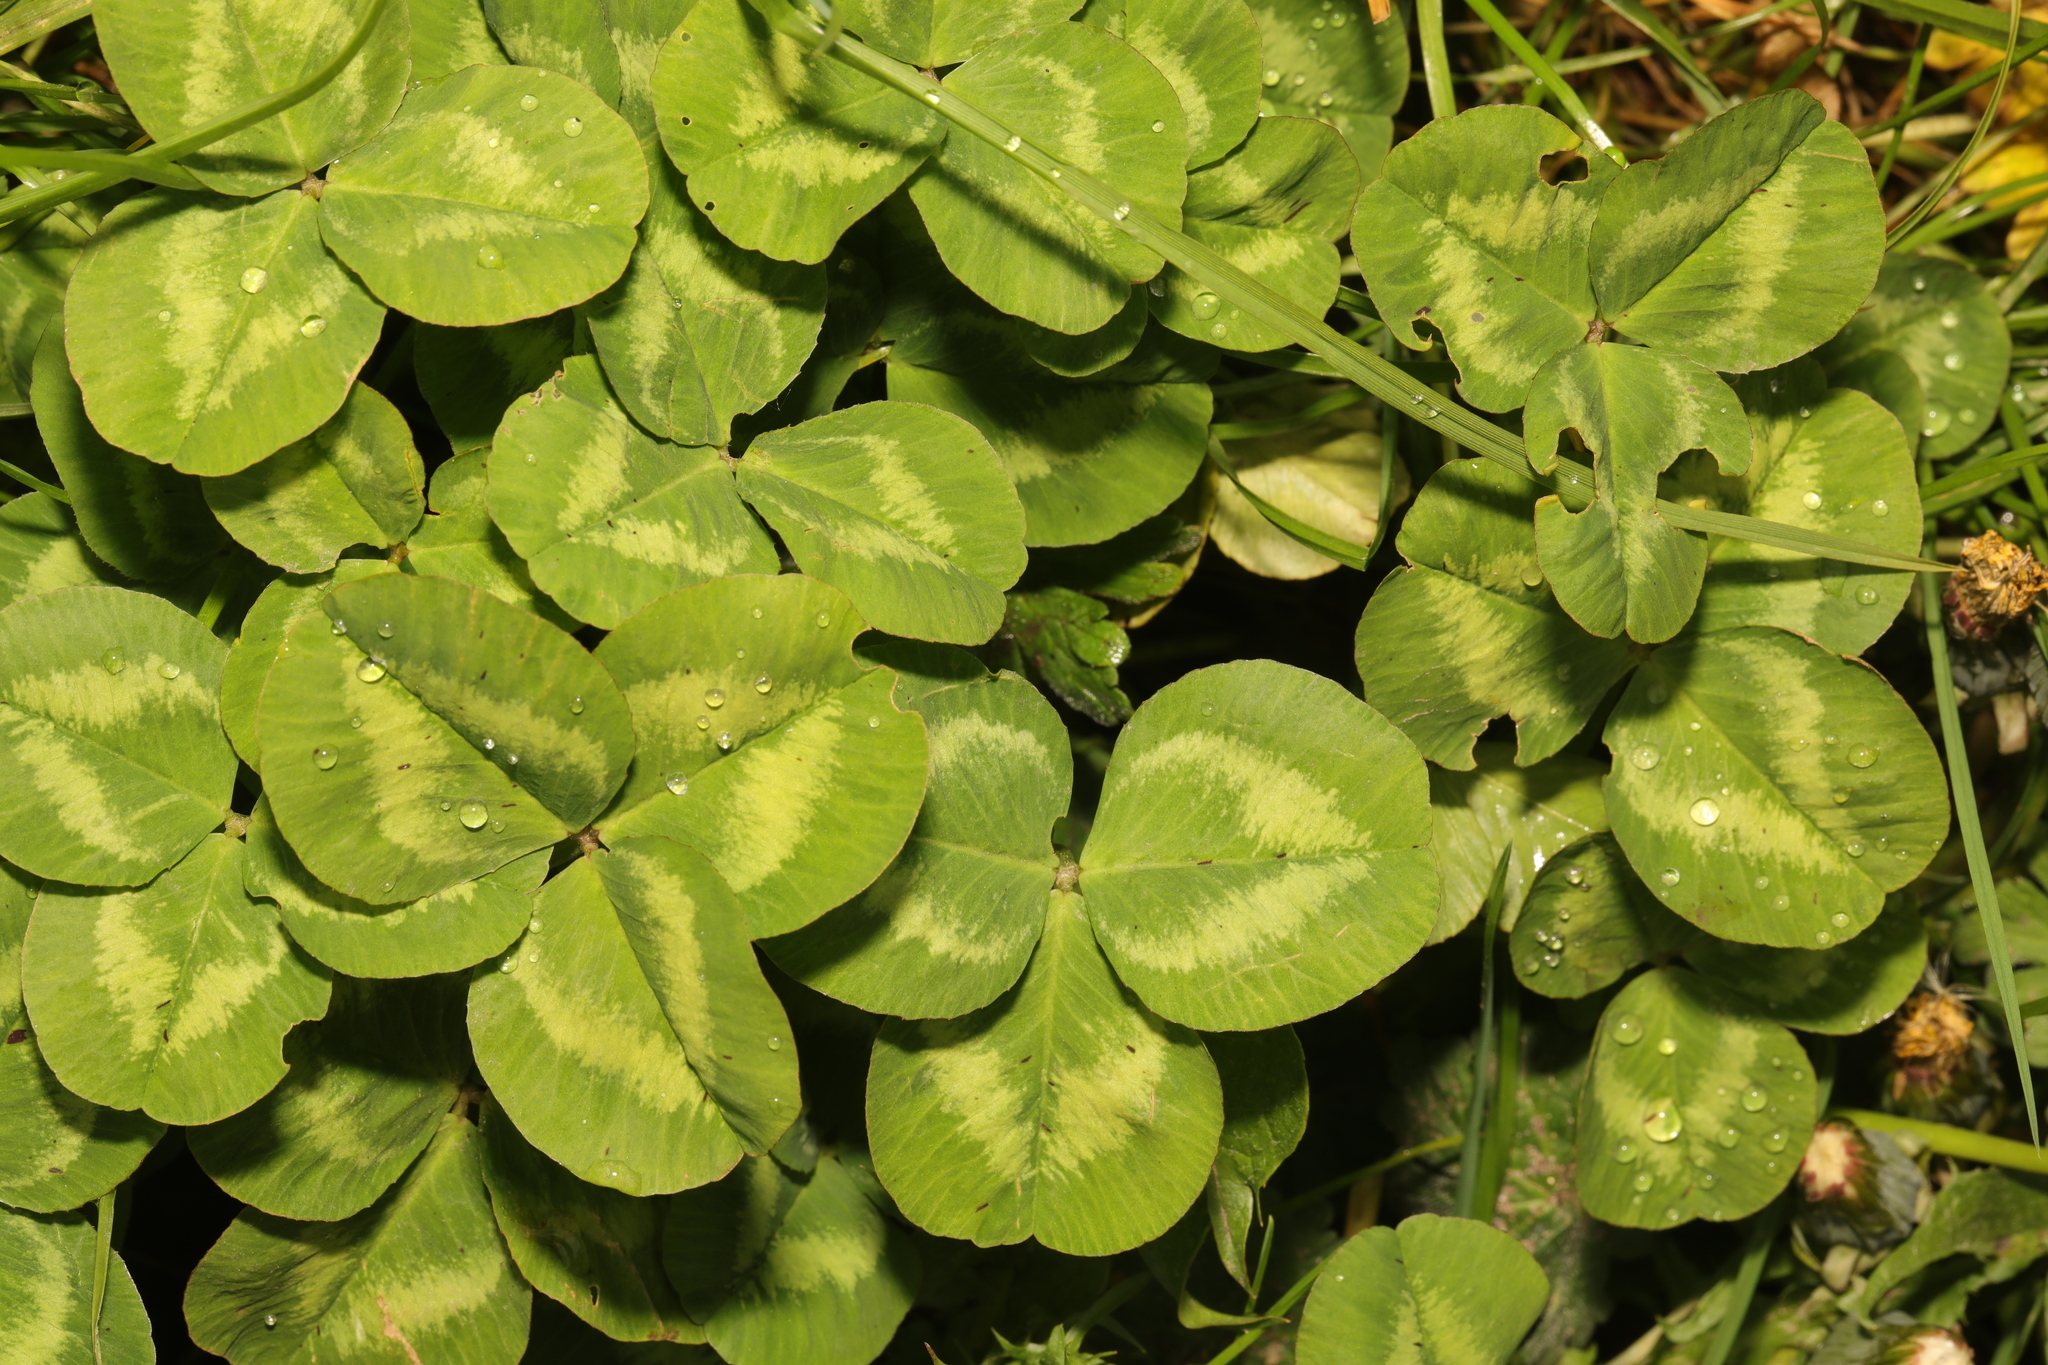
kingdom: Plantae
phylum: Tracheophyta
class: Magnoliopsida
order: Fabales
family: Fabaceae
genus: Trifolium
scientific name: Trifolium repens
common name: White clover
